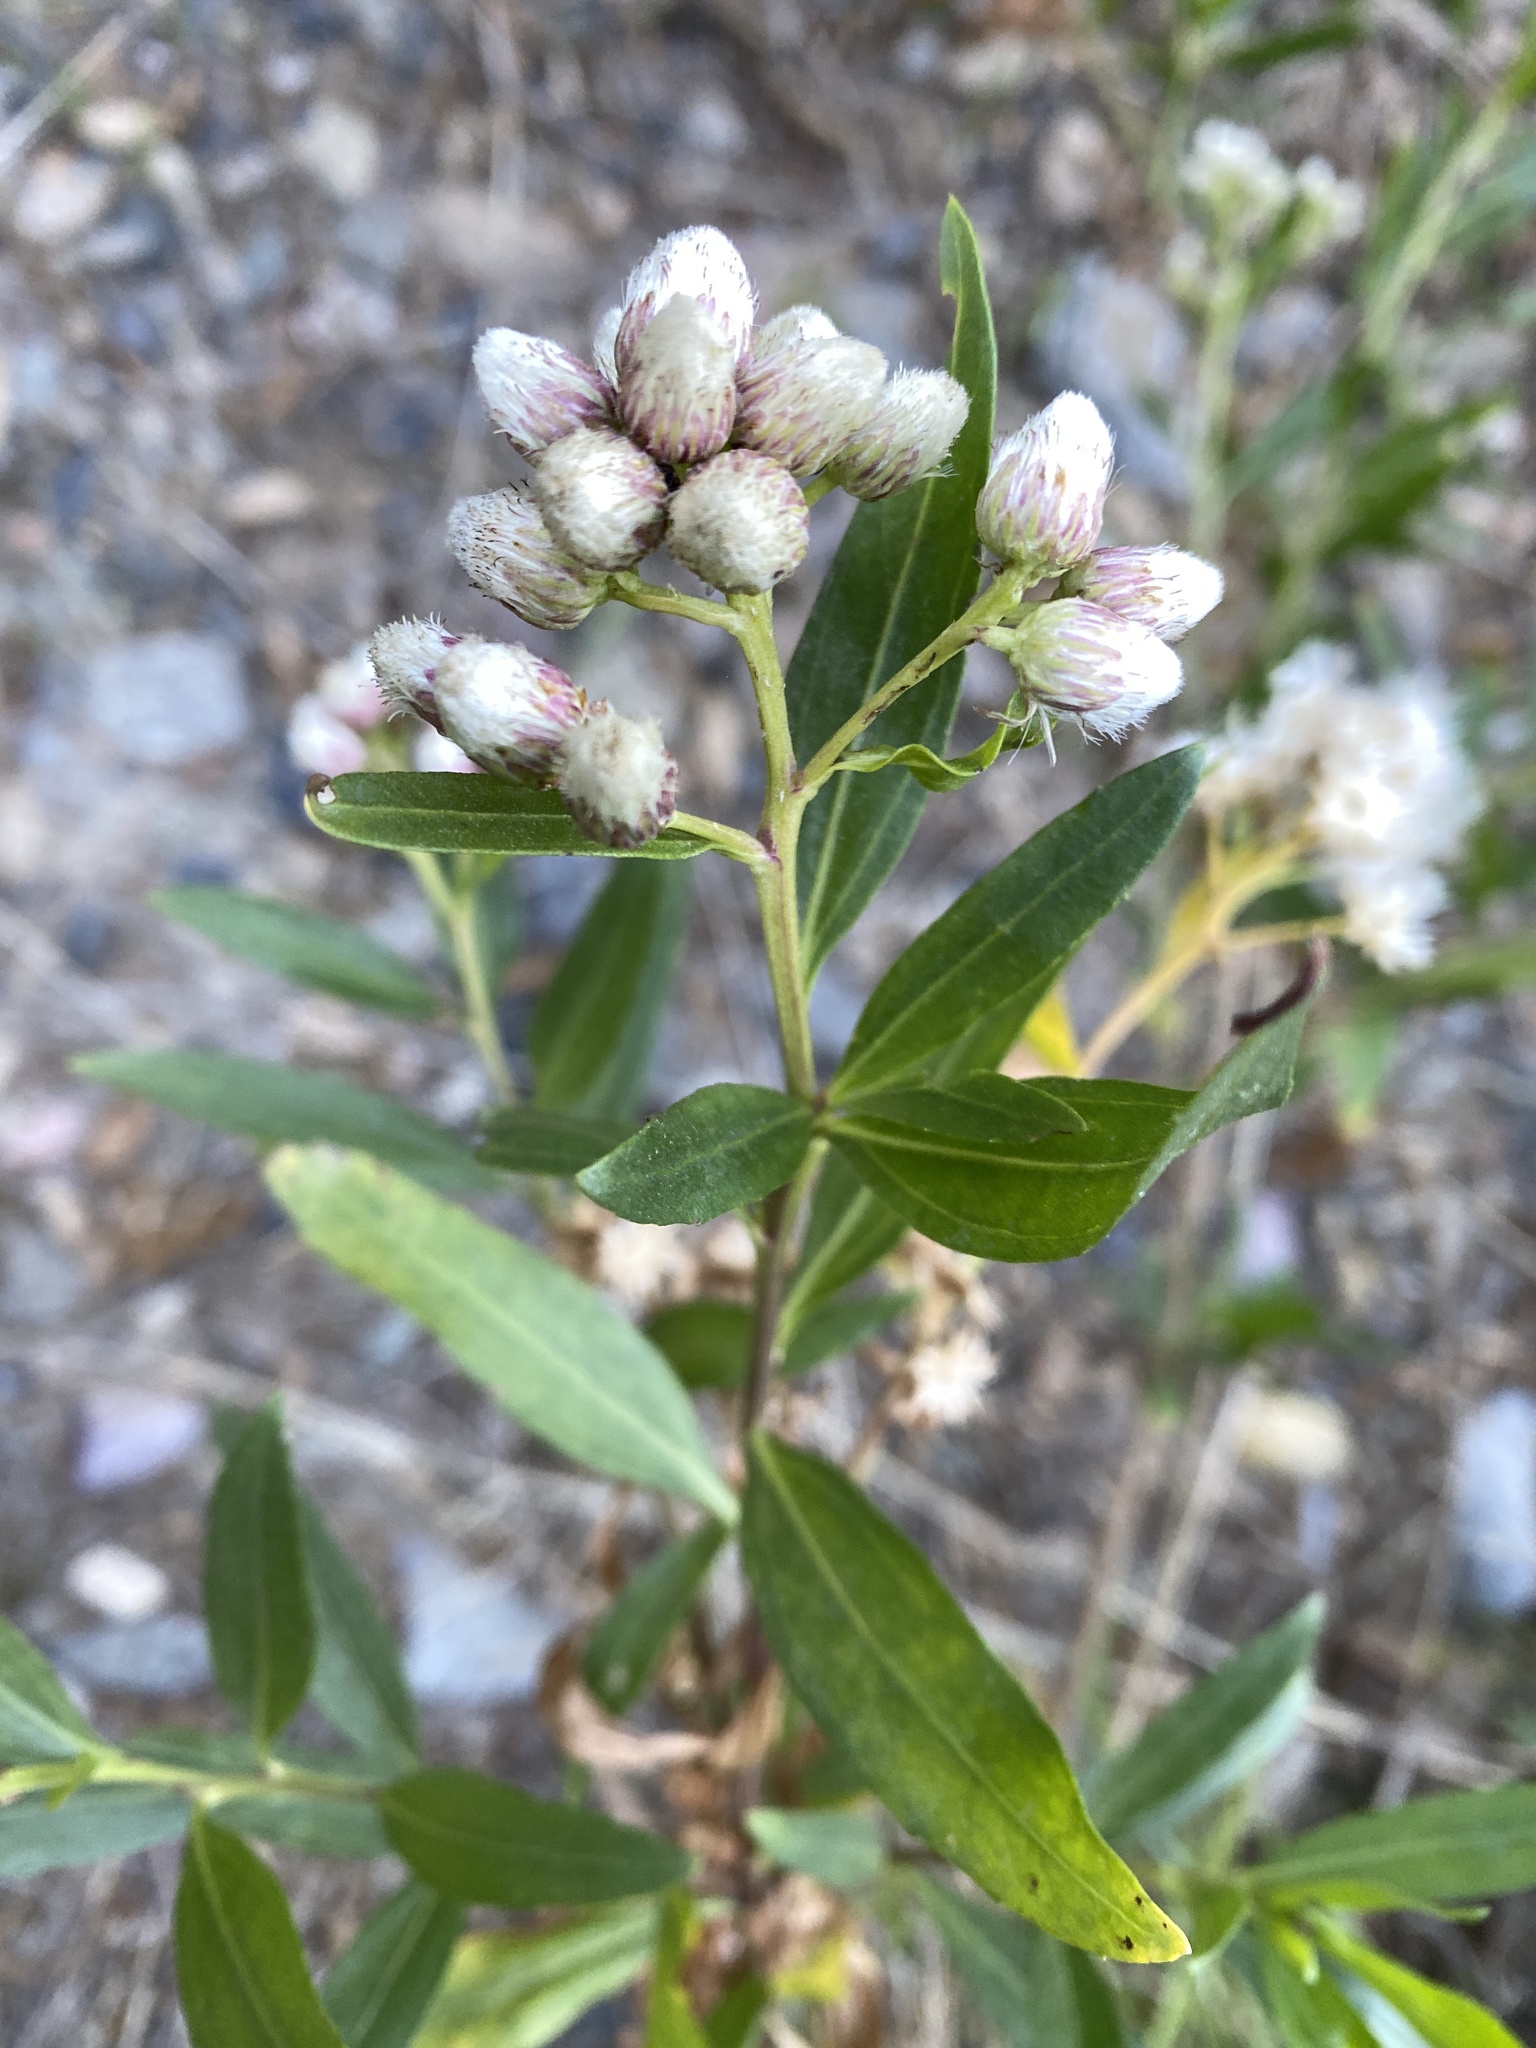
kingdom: Plantae
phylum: Tracheophyta
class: Magnoliopsida
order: Asterales
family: Asteraceae
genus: Baccharis
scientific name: Baccharis salicifolia
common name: Sticky baccharis
